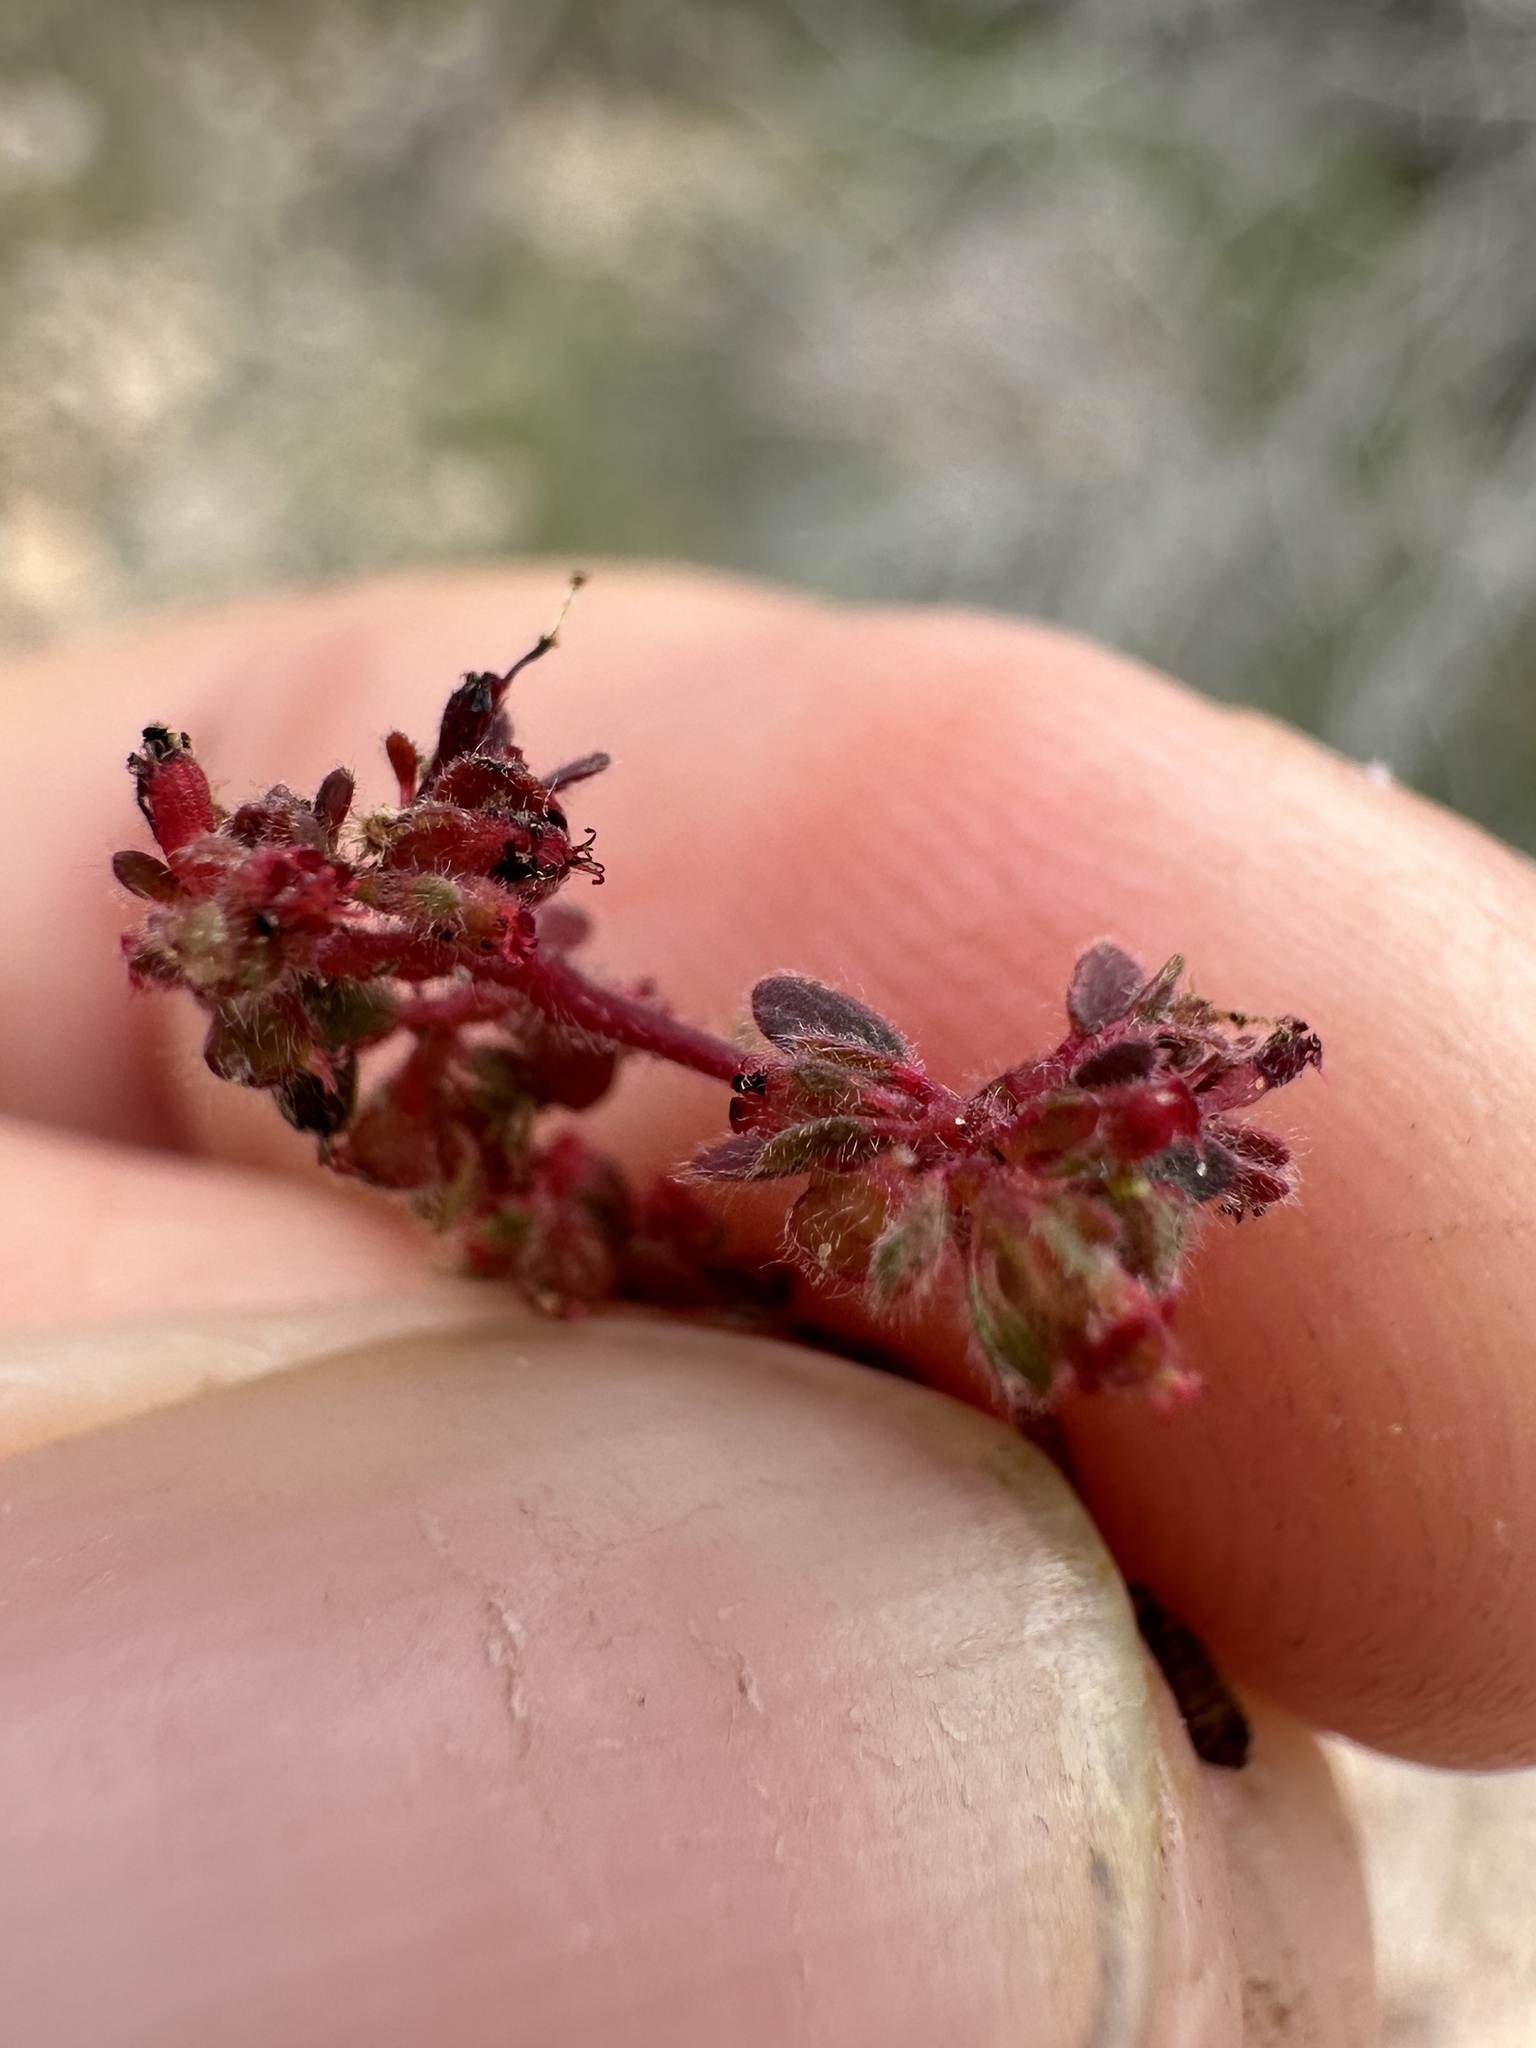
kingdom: Plantae
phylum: Tracheophyta
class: Magnoliopsida
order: Malpighiales
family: Euphorbiaceae
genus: Euphorbia
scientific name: Euphorbia setiloba
